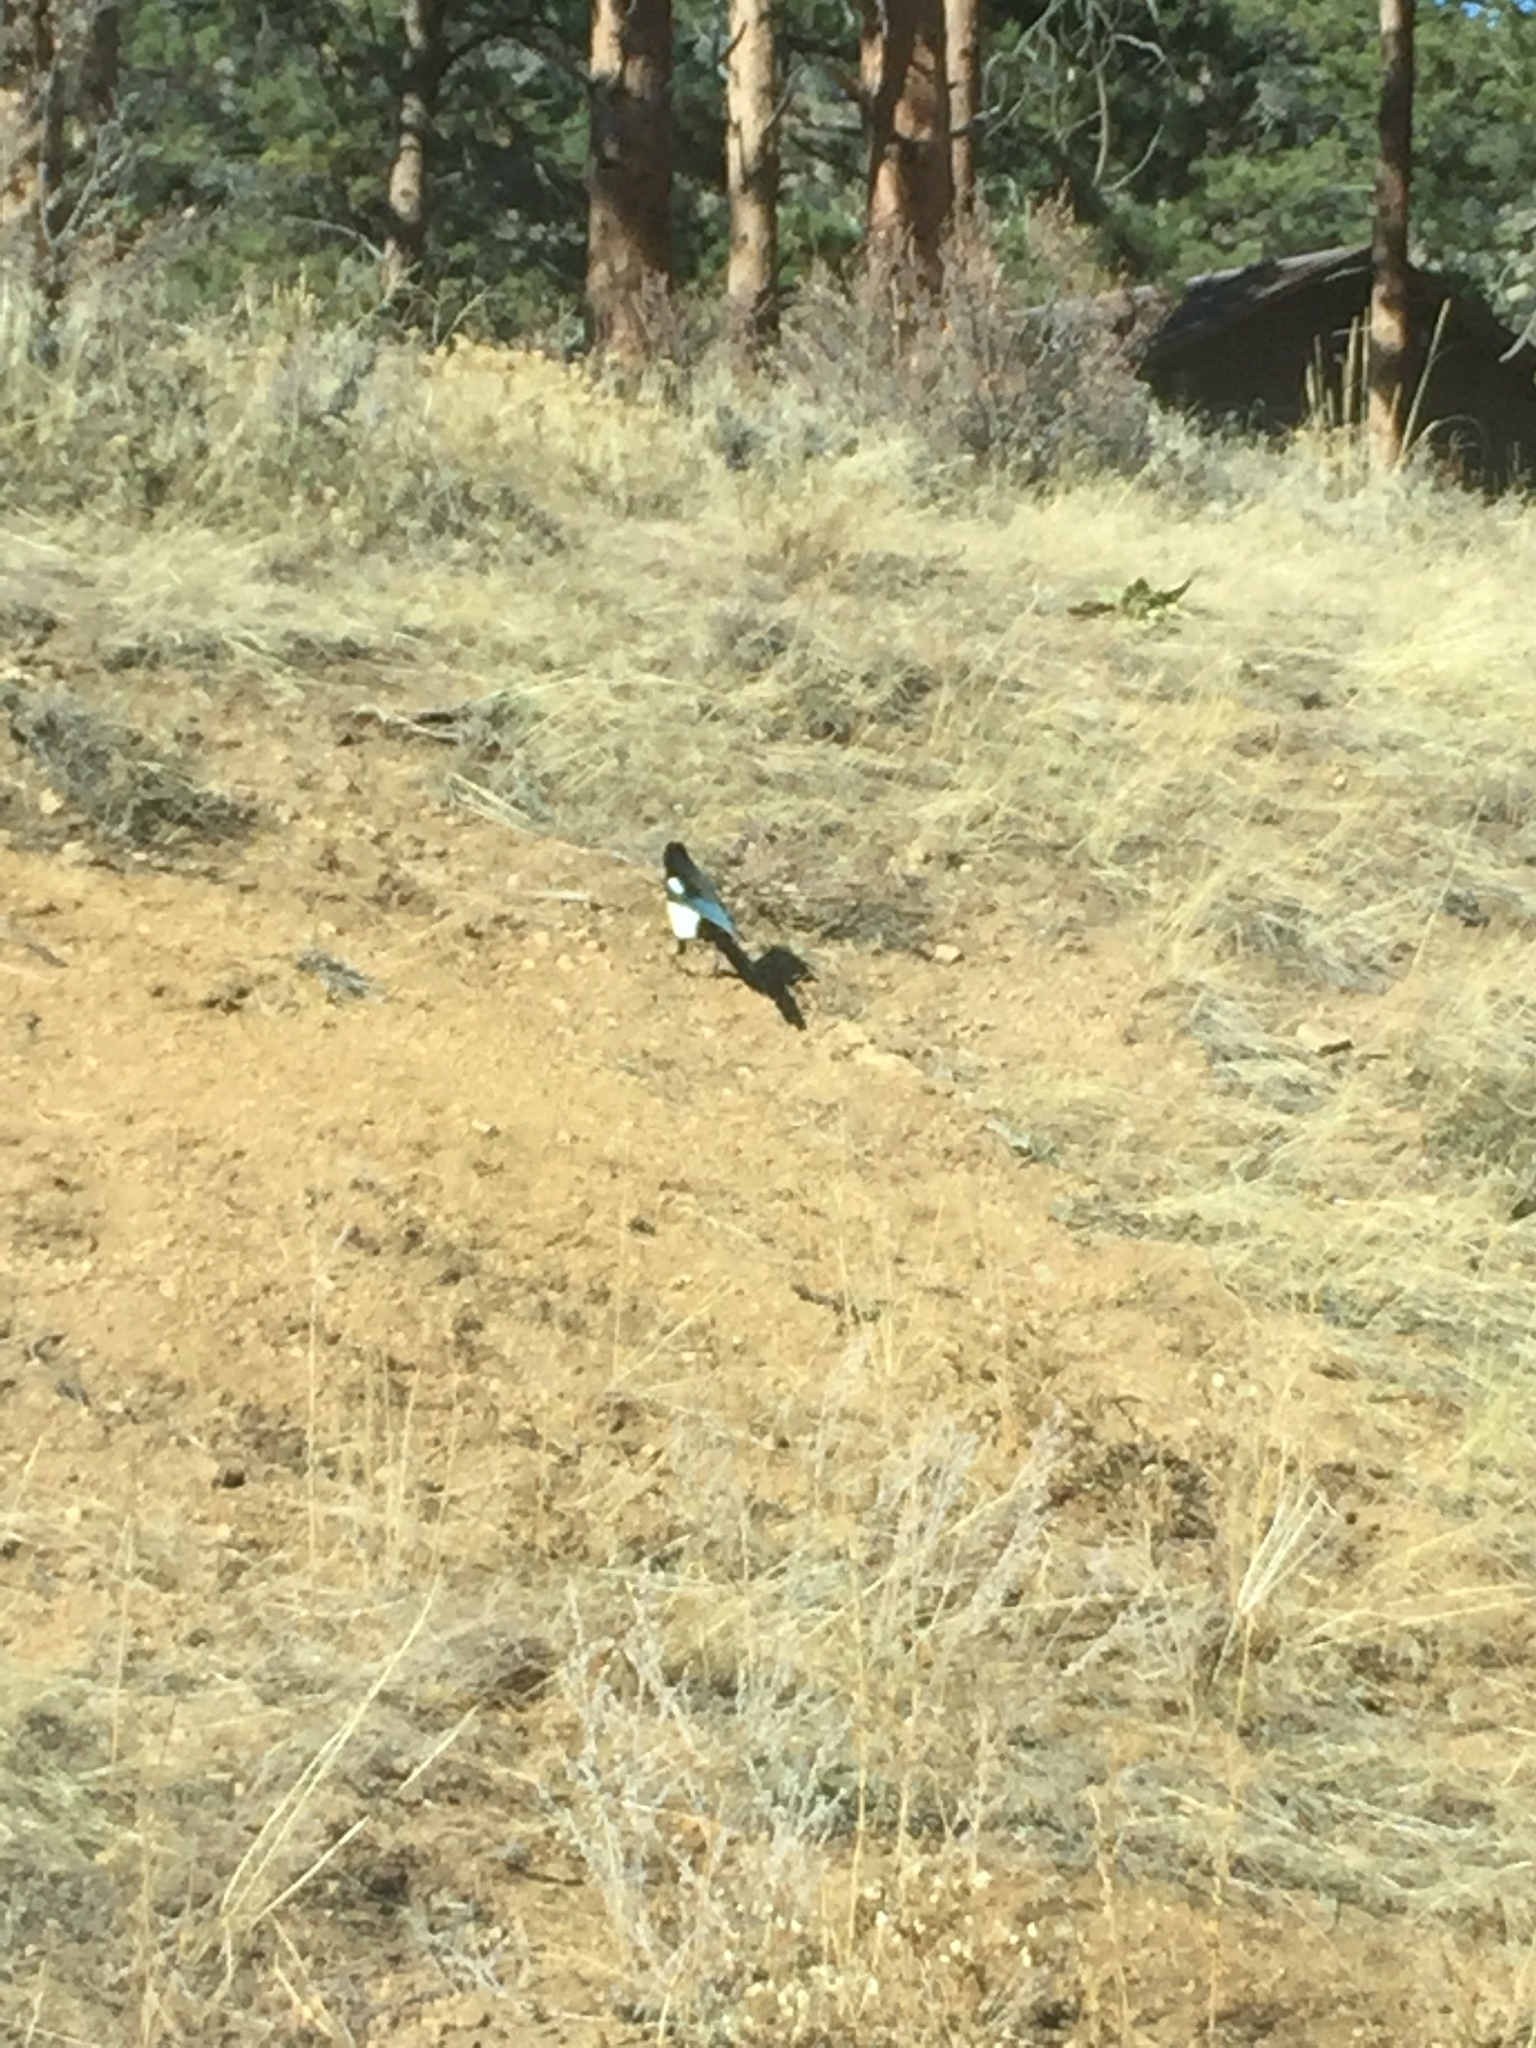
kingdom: Animalia
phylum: Chordata
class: Aves
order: Passeriformes
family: Corvidae
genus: Pica
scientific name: Pica hudsonia
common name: Black-billed magpie
